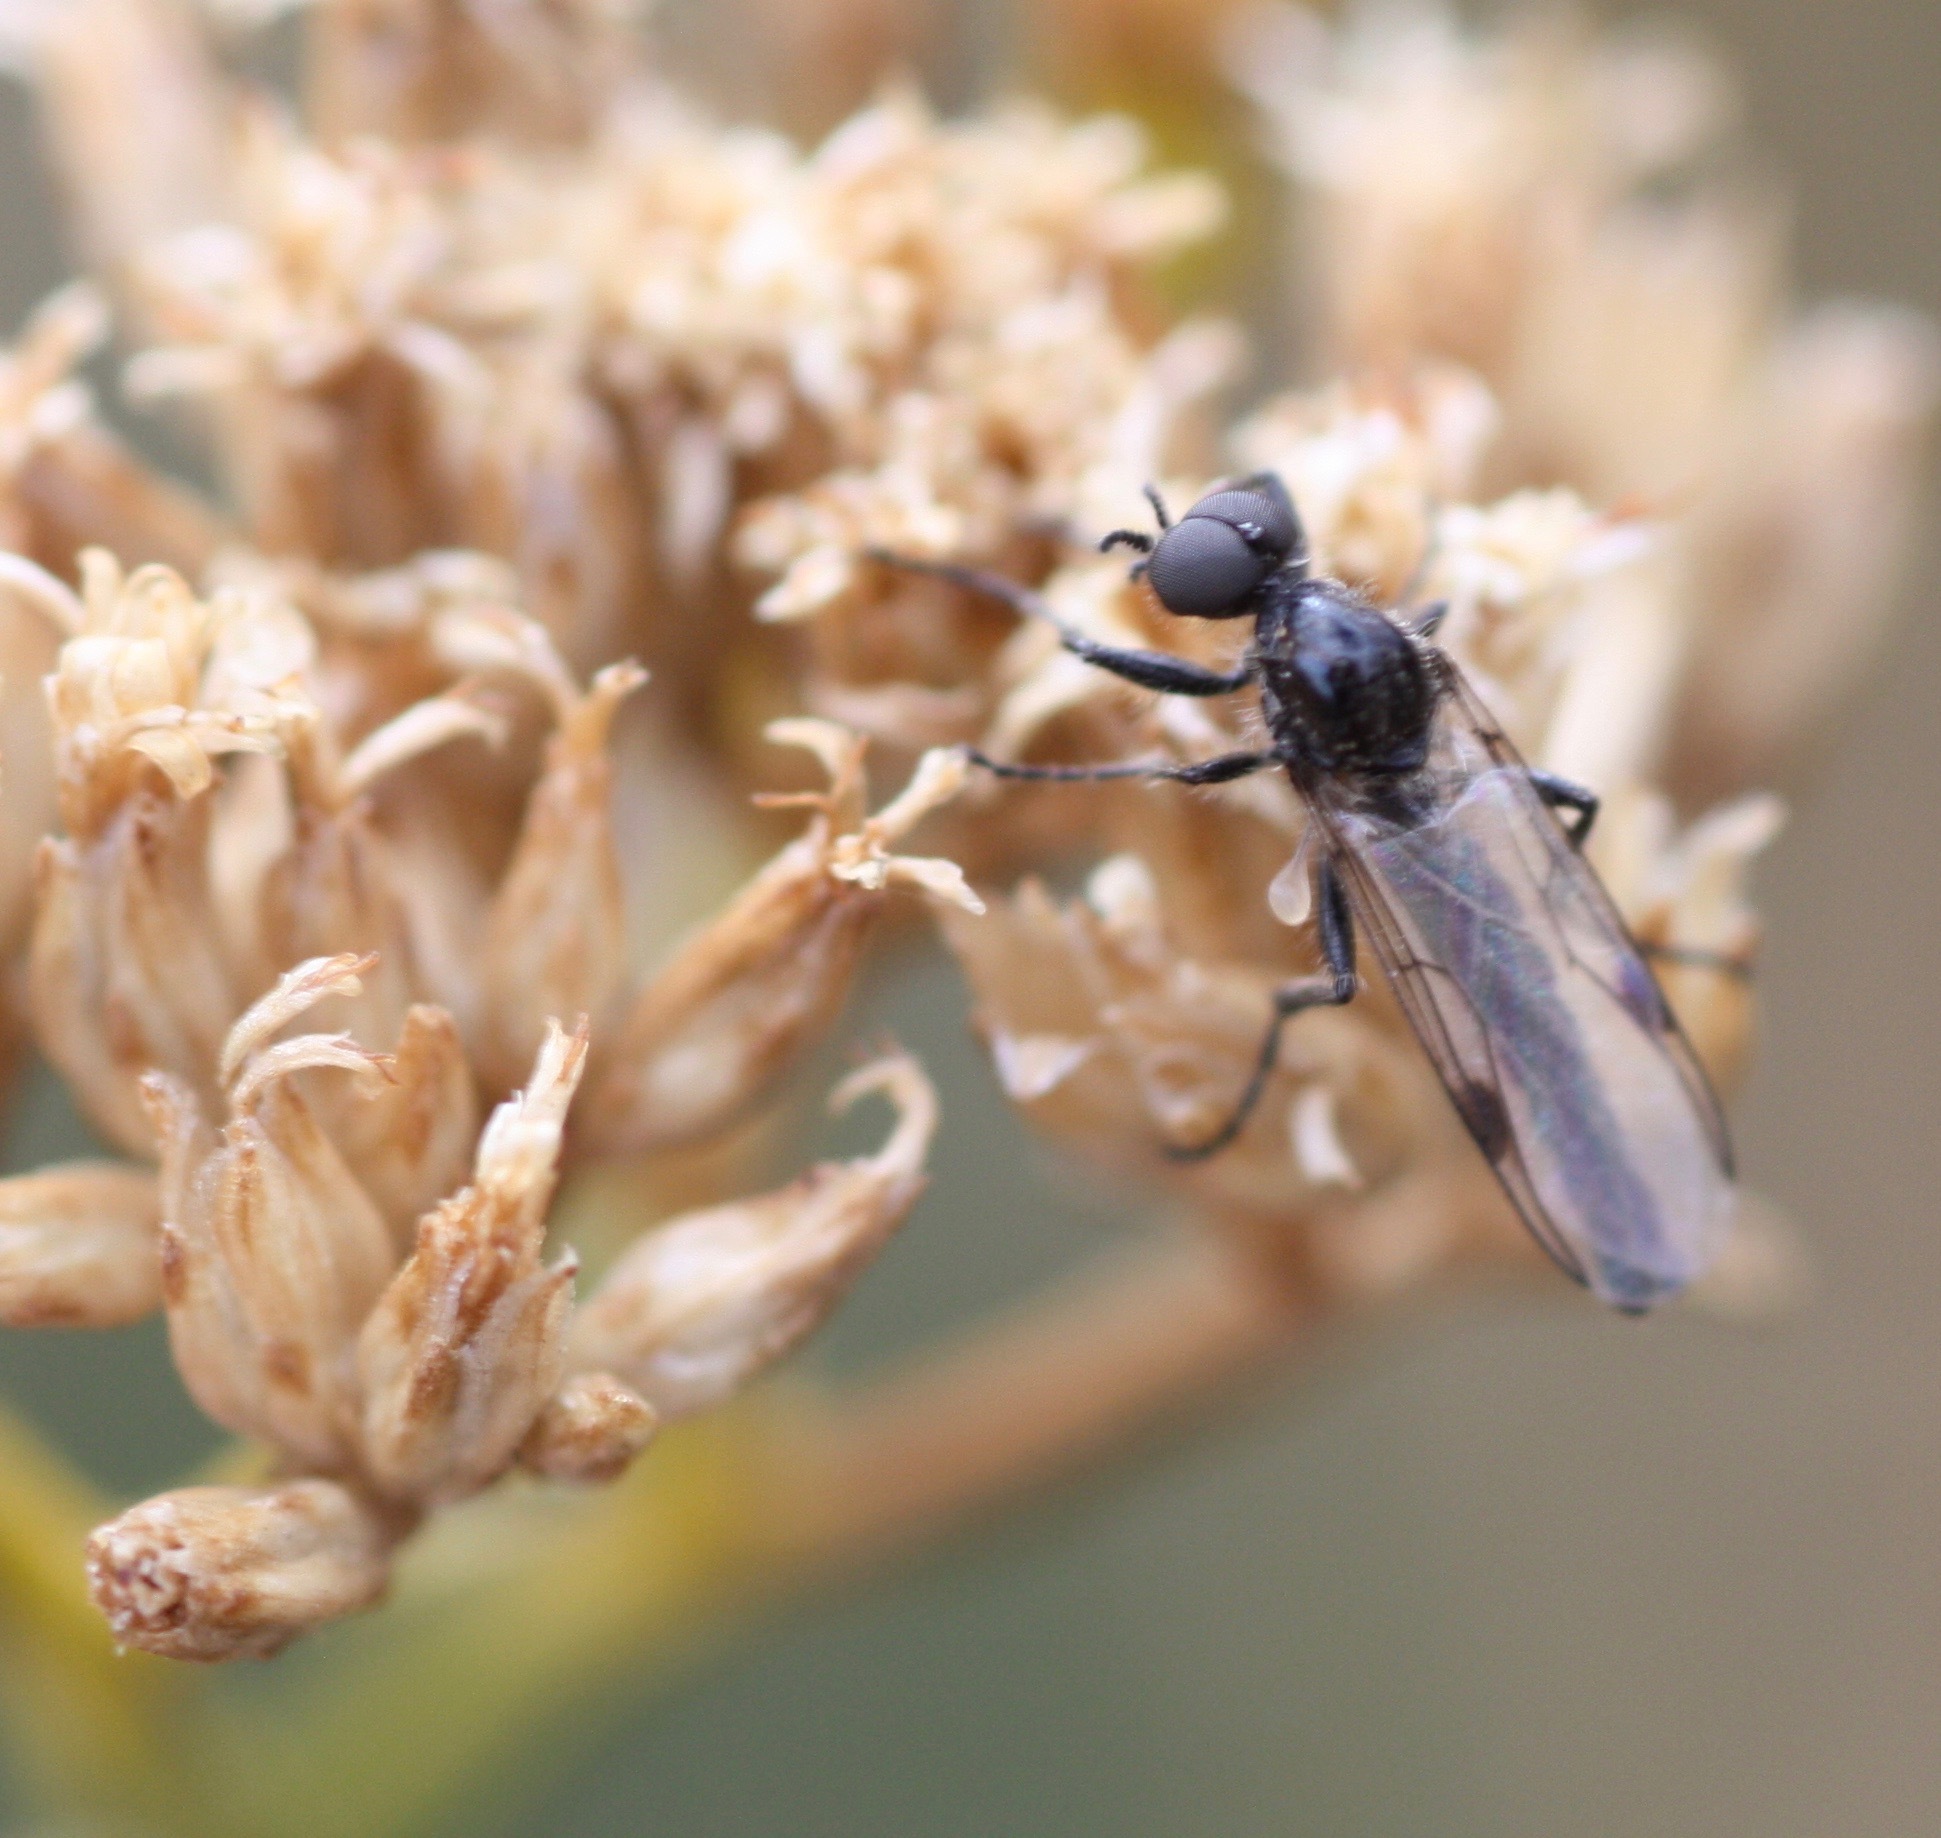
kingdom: Animalia
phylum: Arthropoda
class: Insecta
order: Diptera
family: Bibionidae
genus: Bibiodes
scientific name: Bibiodes halteralis
